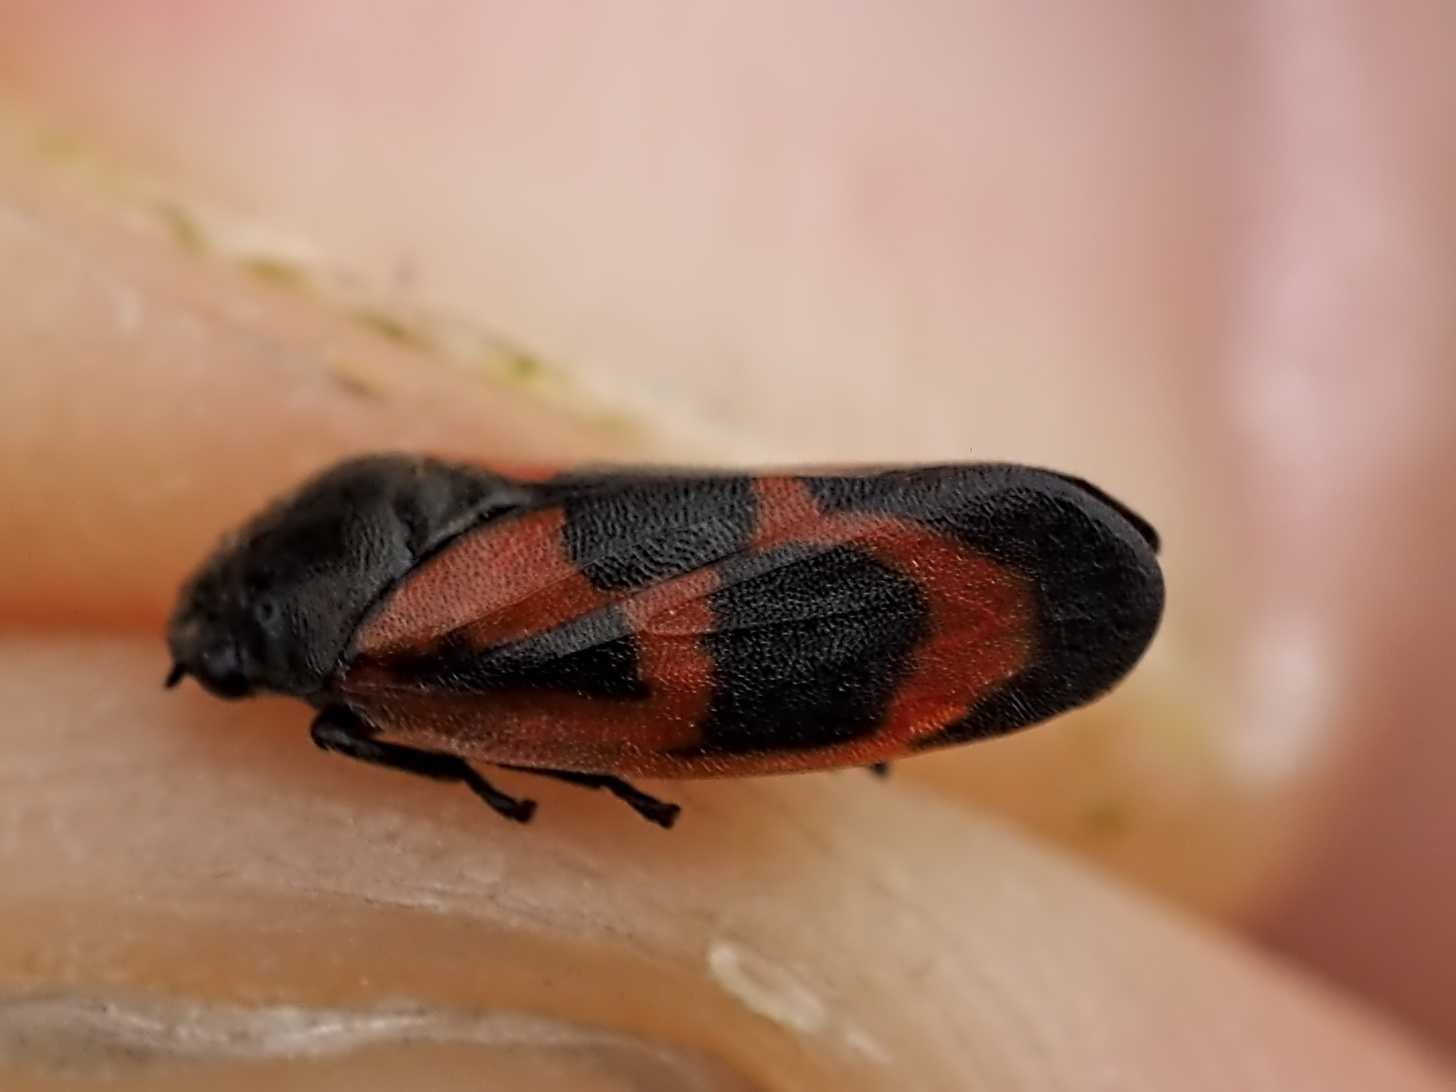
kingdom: Animalia
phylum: Arthropoda
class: Insecta
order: Hemiptera
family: Cercopidae
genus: Haematoloma
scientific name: Haematoloma dorsata
